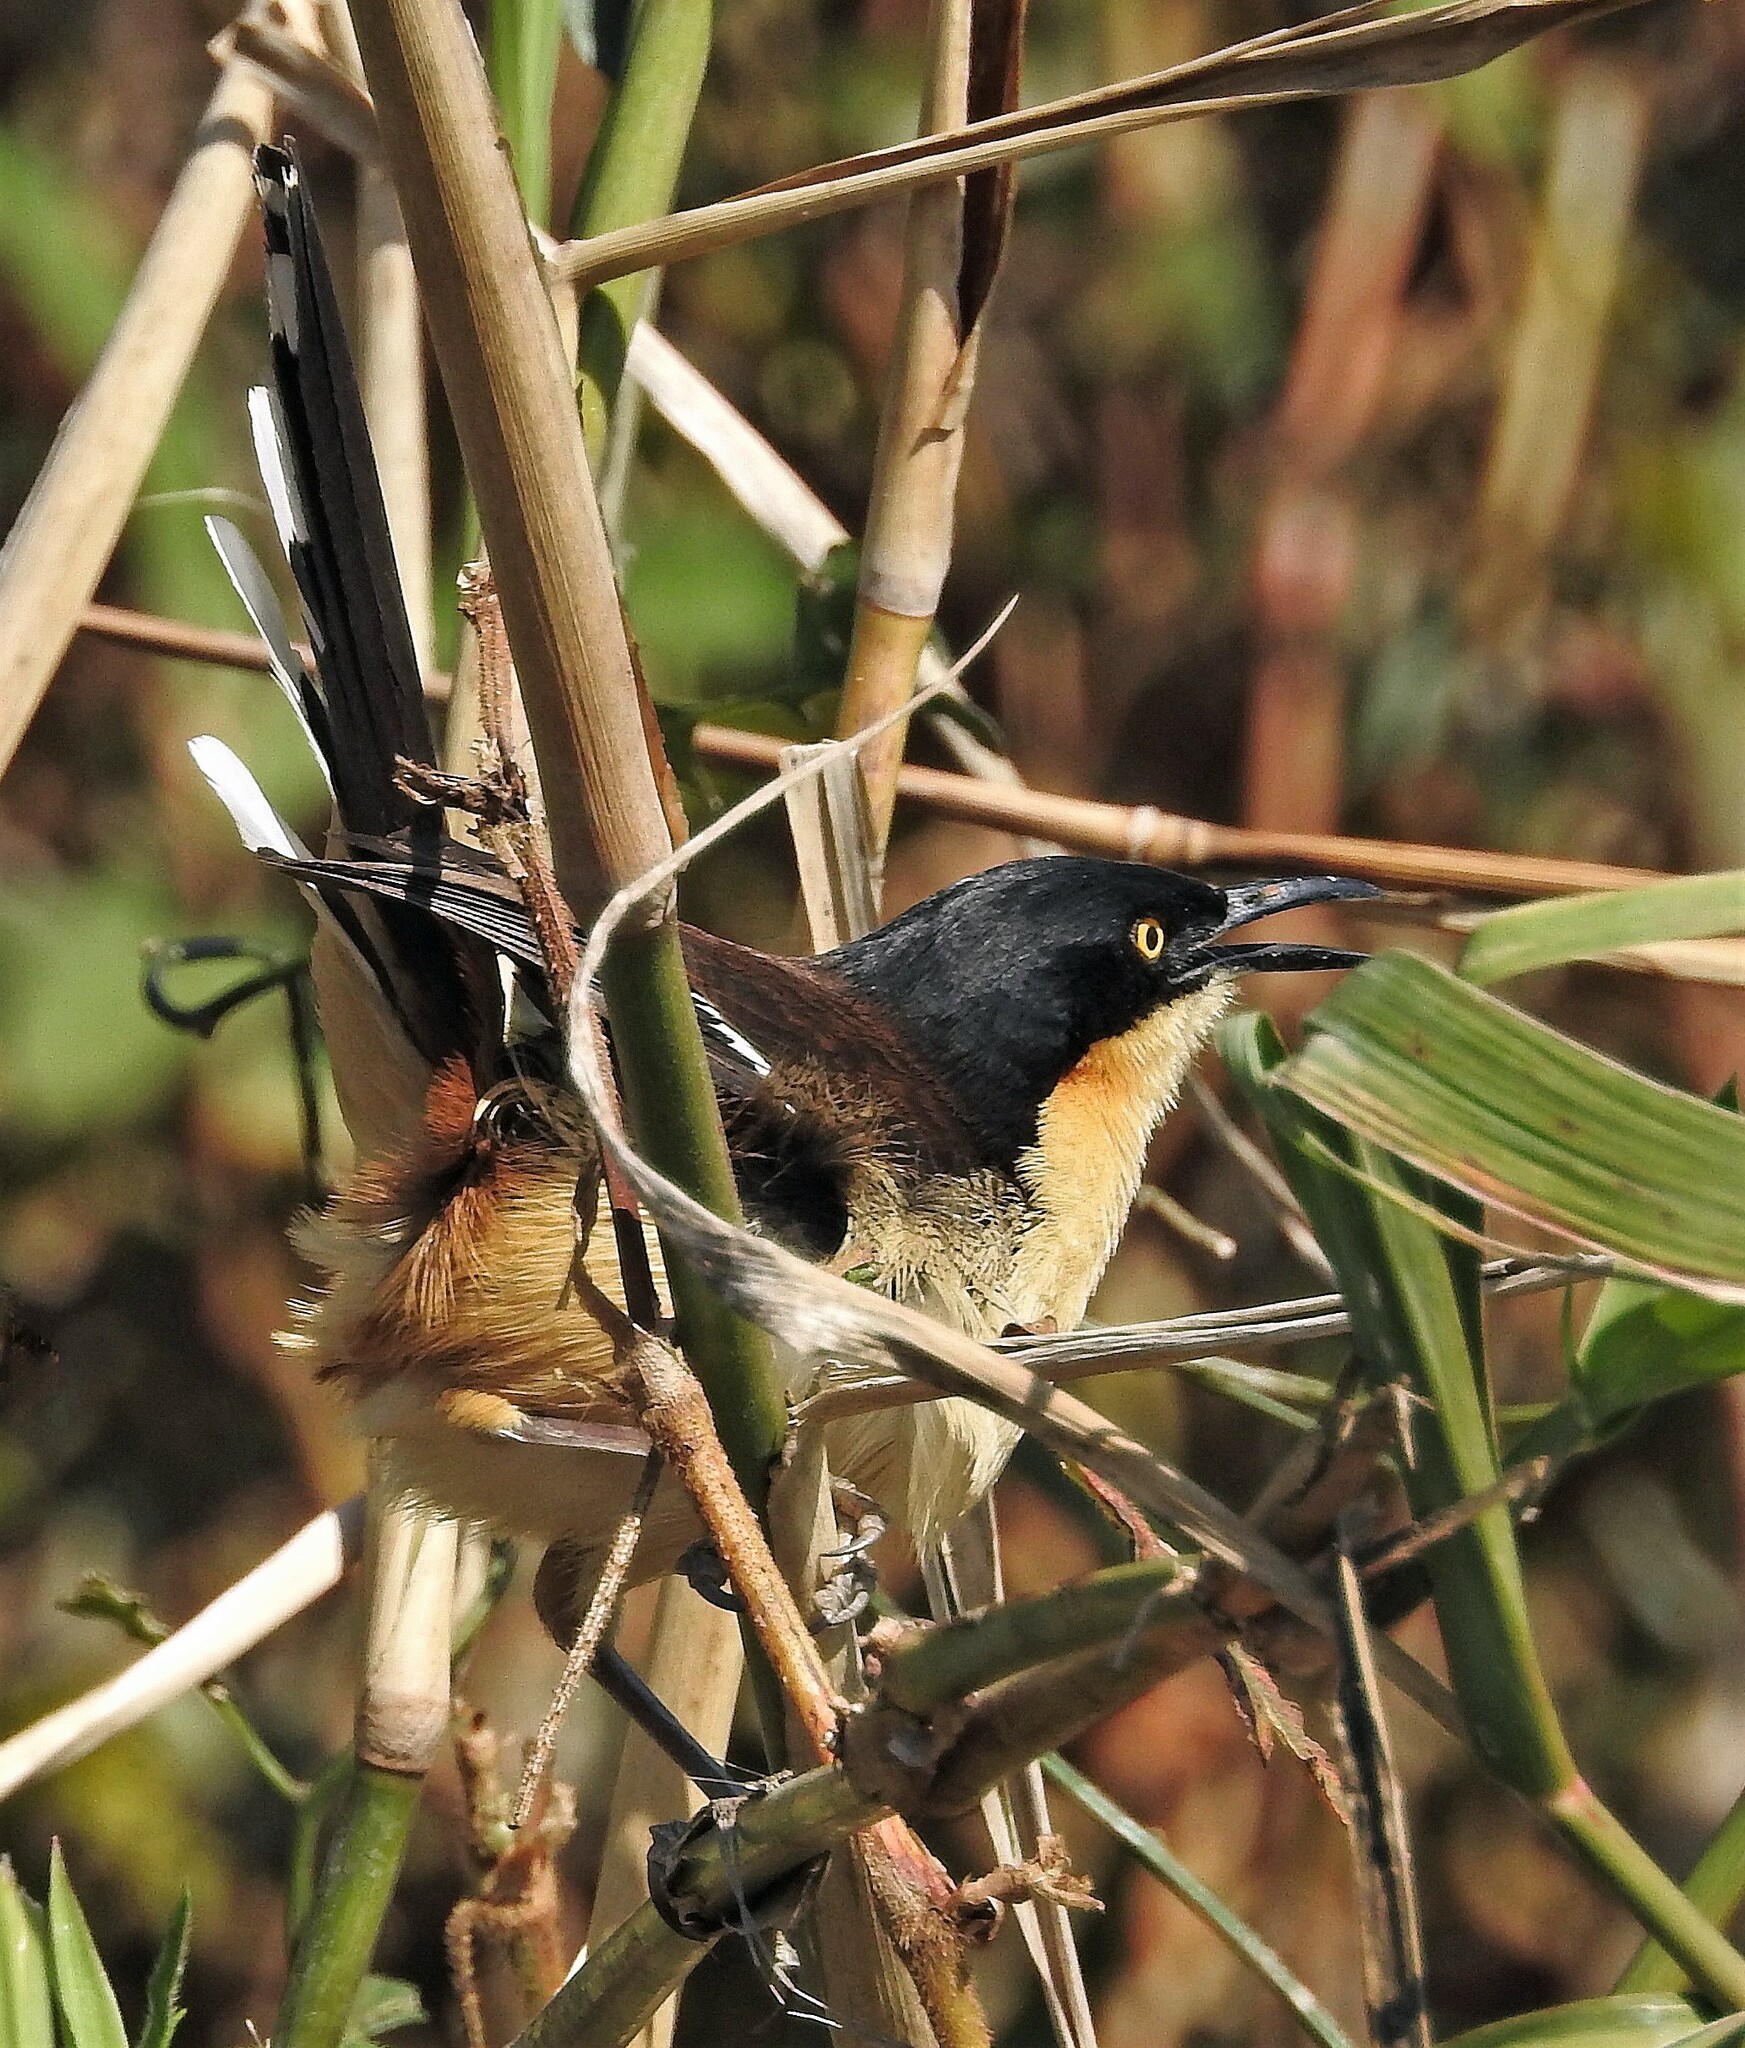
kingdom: Animalia
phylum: Chordata
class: Aves
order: Passeriformes
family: Donacobiidae
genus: Donacobius
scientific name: Donacobius atricapilla
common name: Black-capped donacobius
